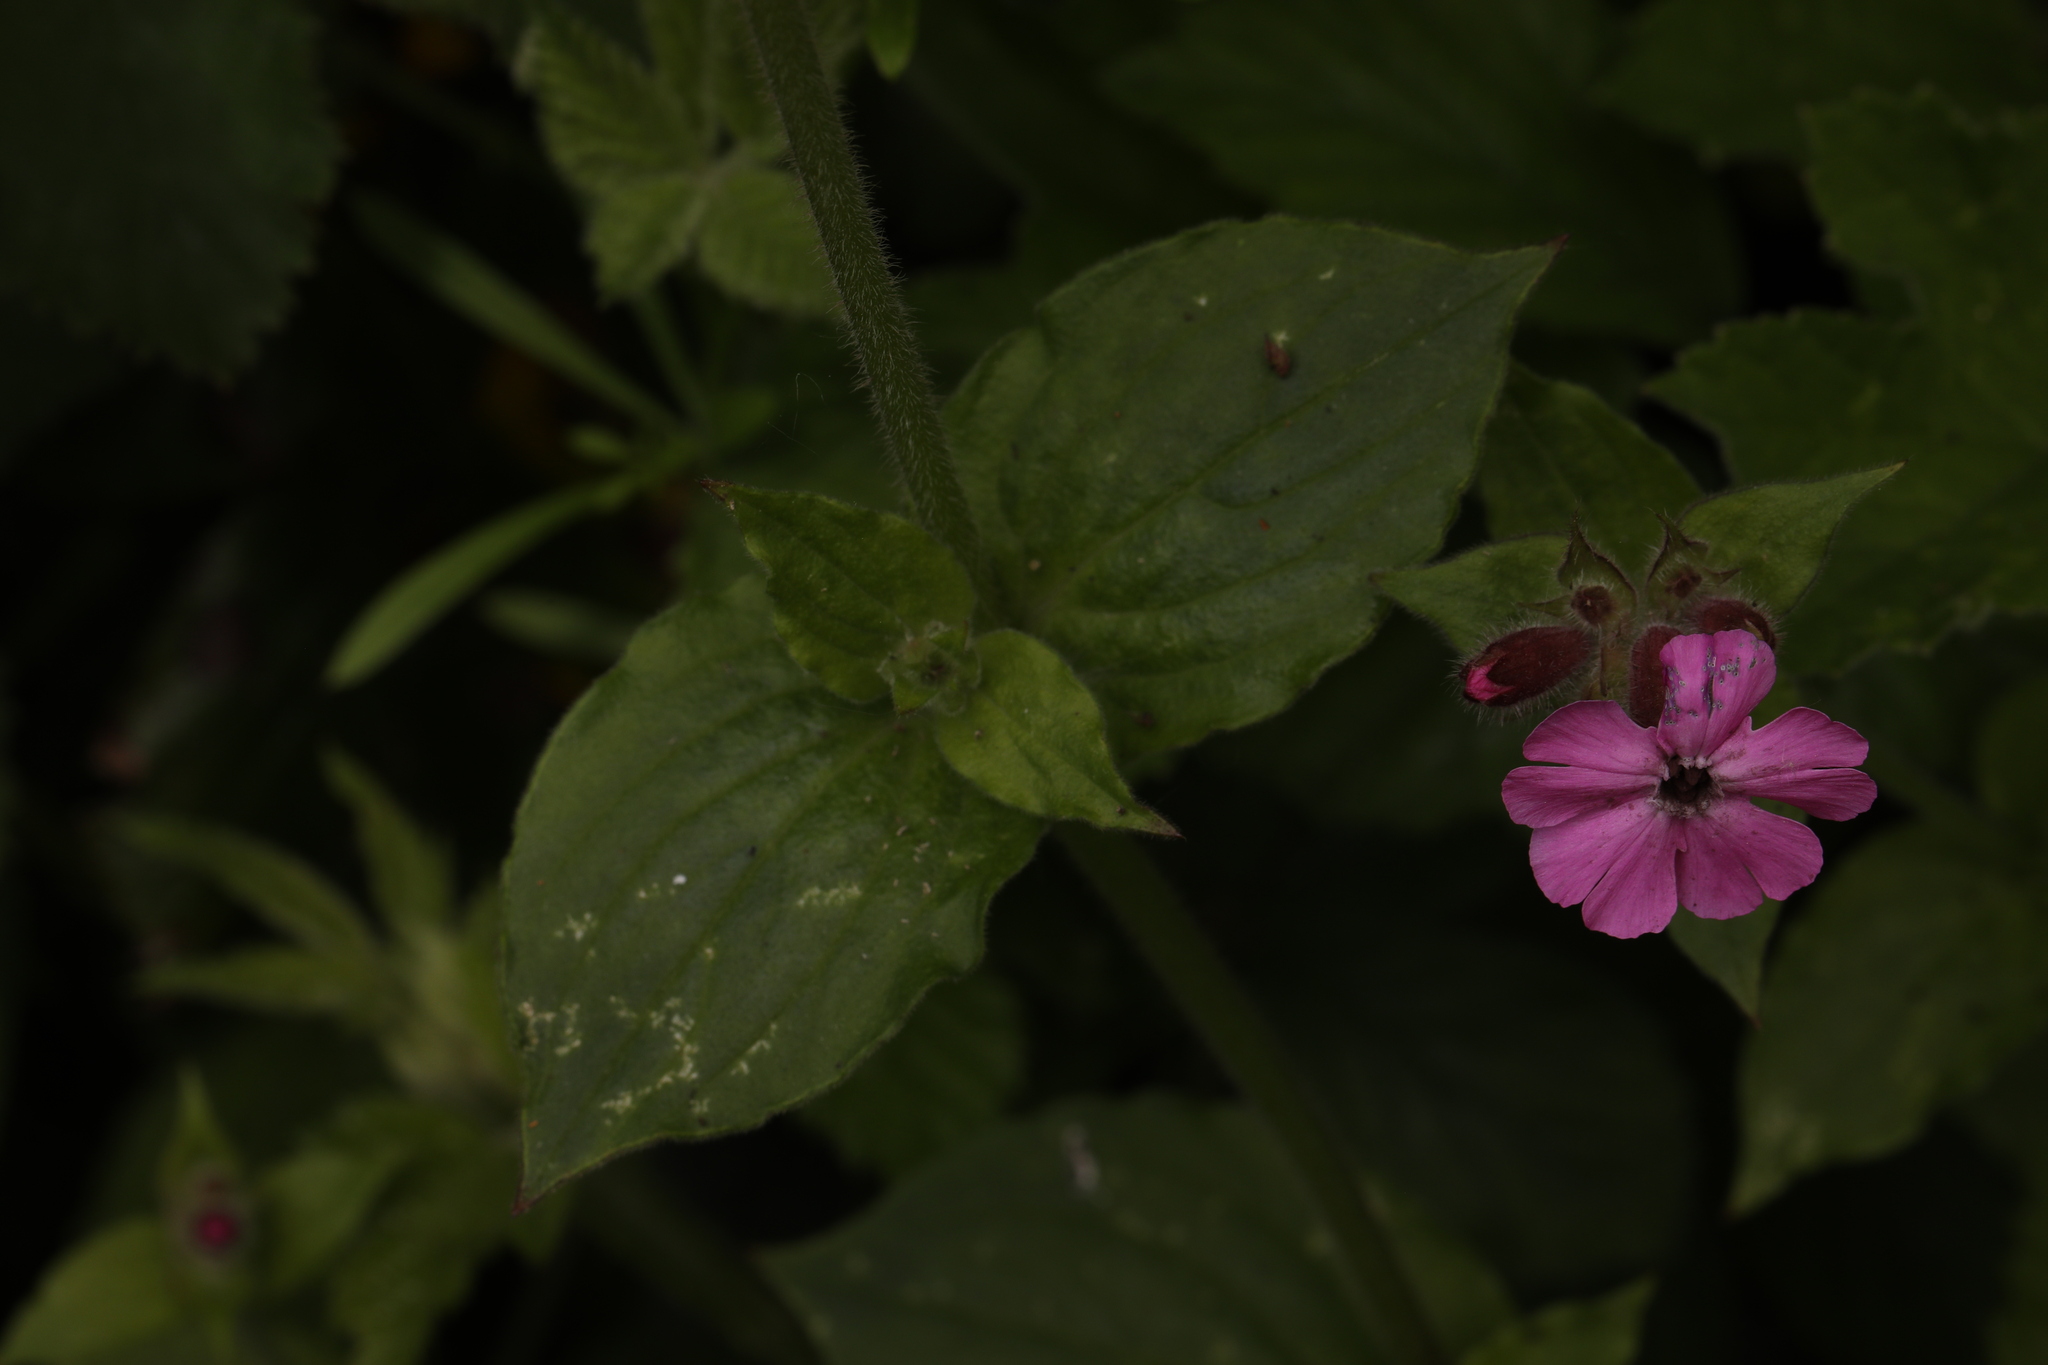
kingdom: Plantae
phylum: Tracheophyta
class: Magnoliopsida
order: Caryophyllales
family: Caryophyllaceae
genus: Silene
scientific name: Silene dioica
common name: Red campion
